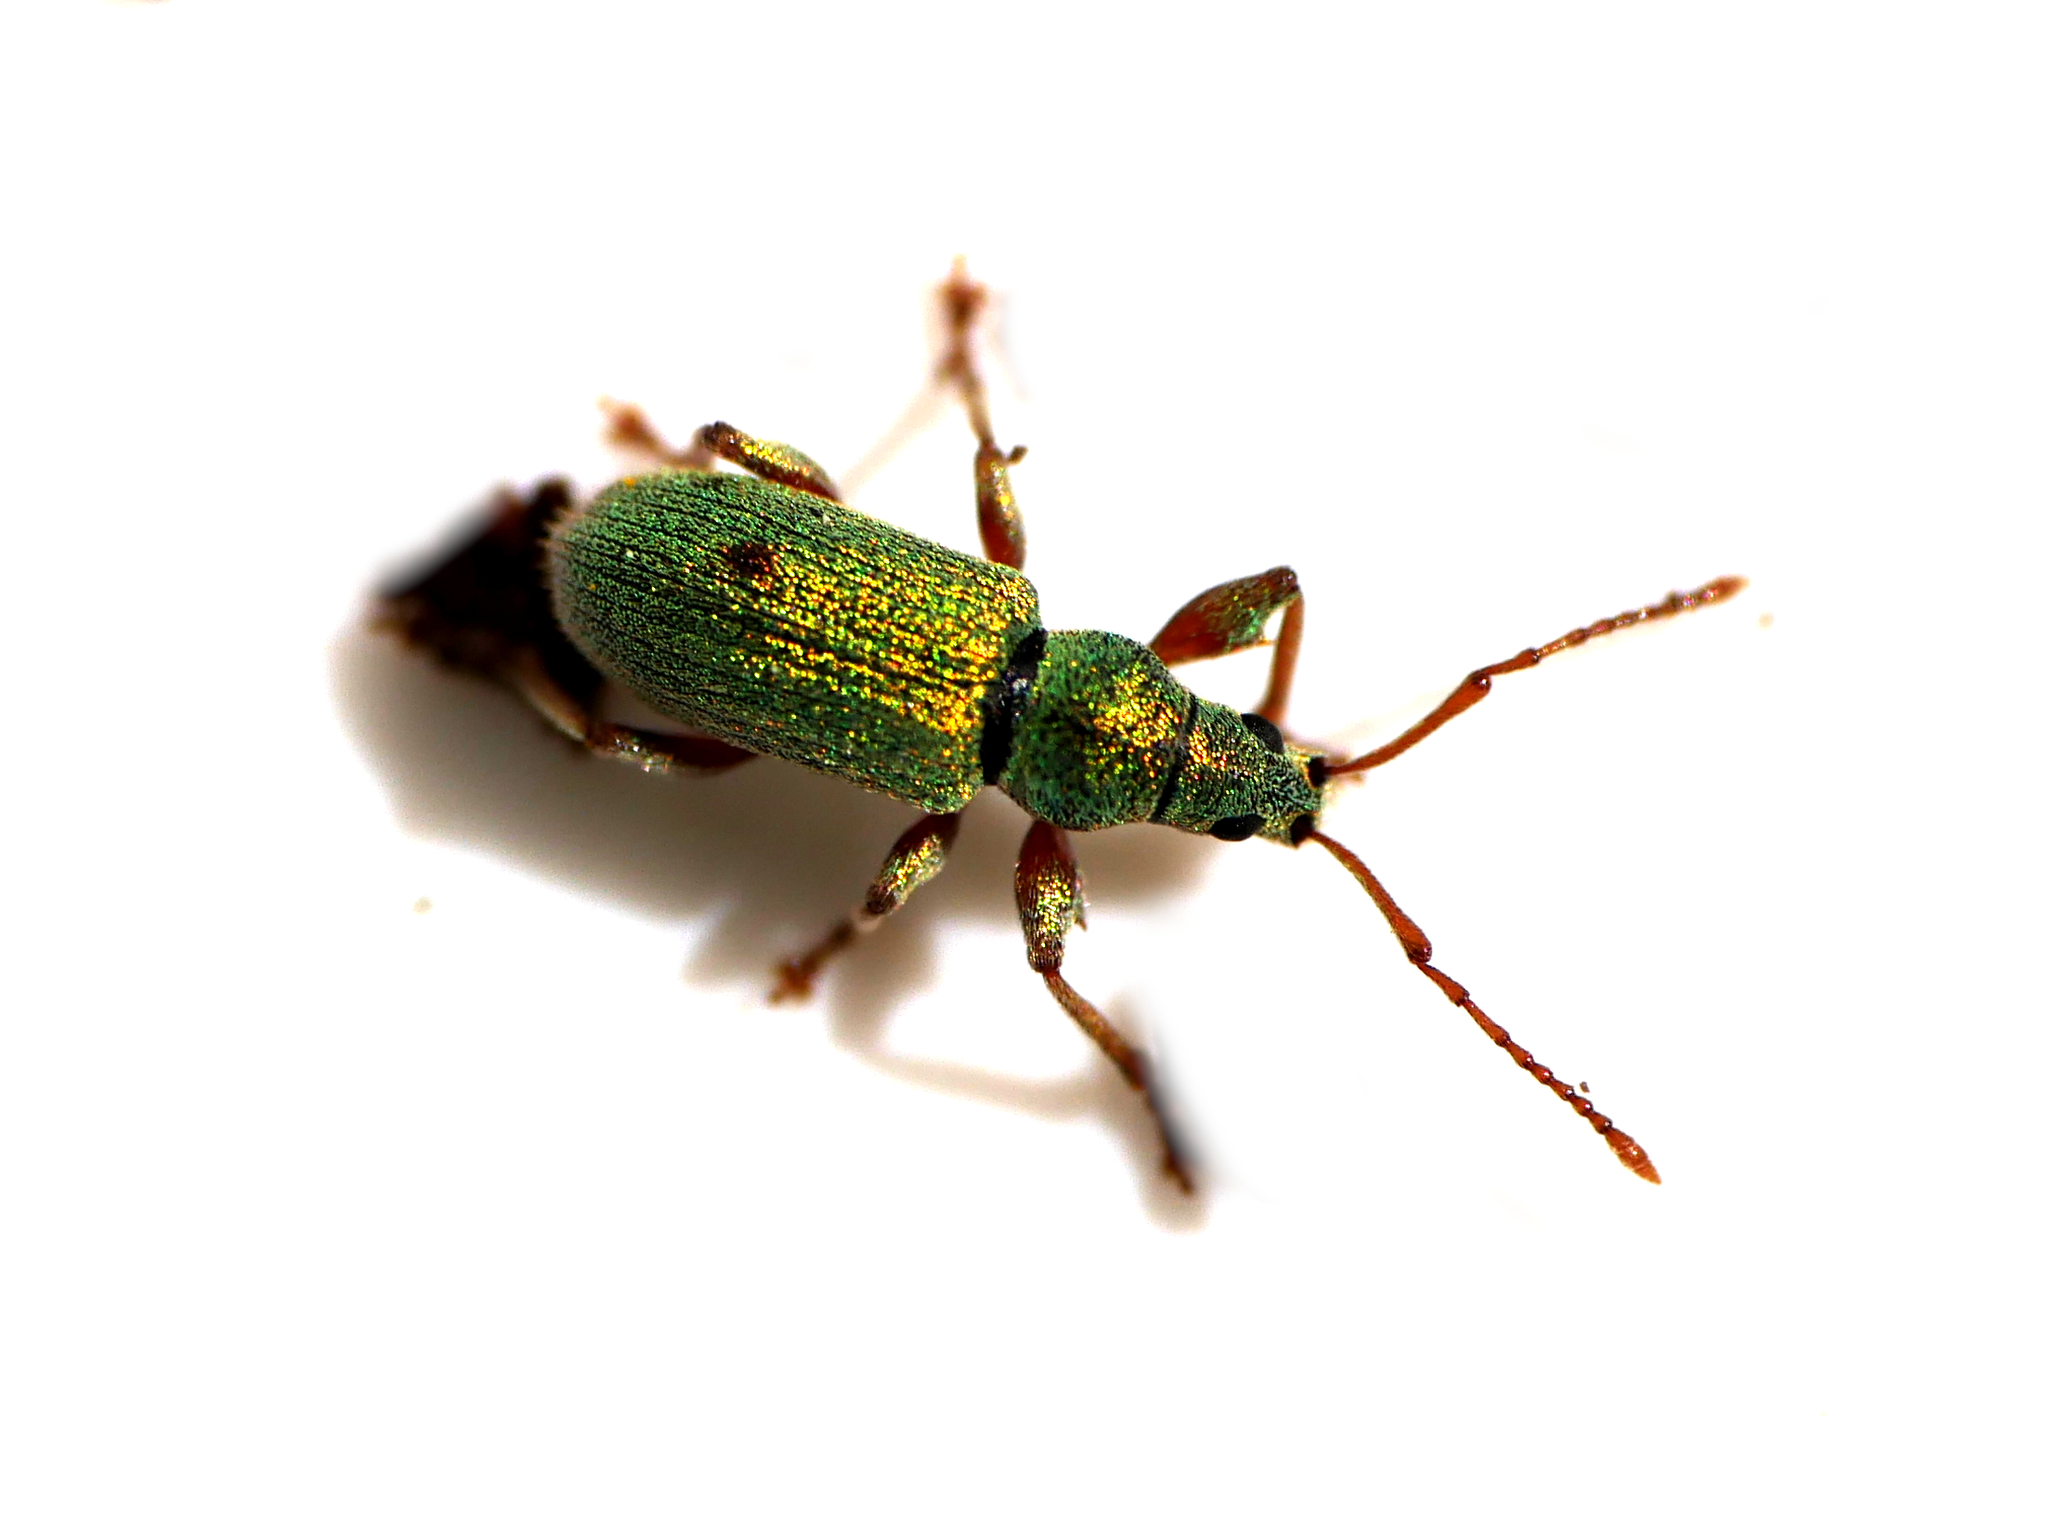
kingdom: Animalia
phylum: Arthropoda
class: Insecta
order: Coleoptera
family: Curculionidae
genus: Phyllobius
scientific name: Phyllobius argentatus
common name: Silver-green leaf weevil
